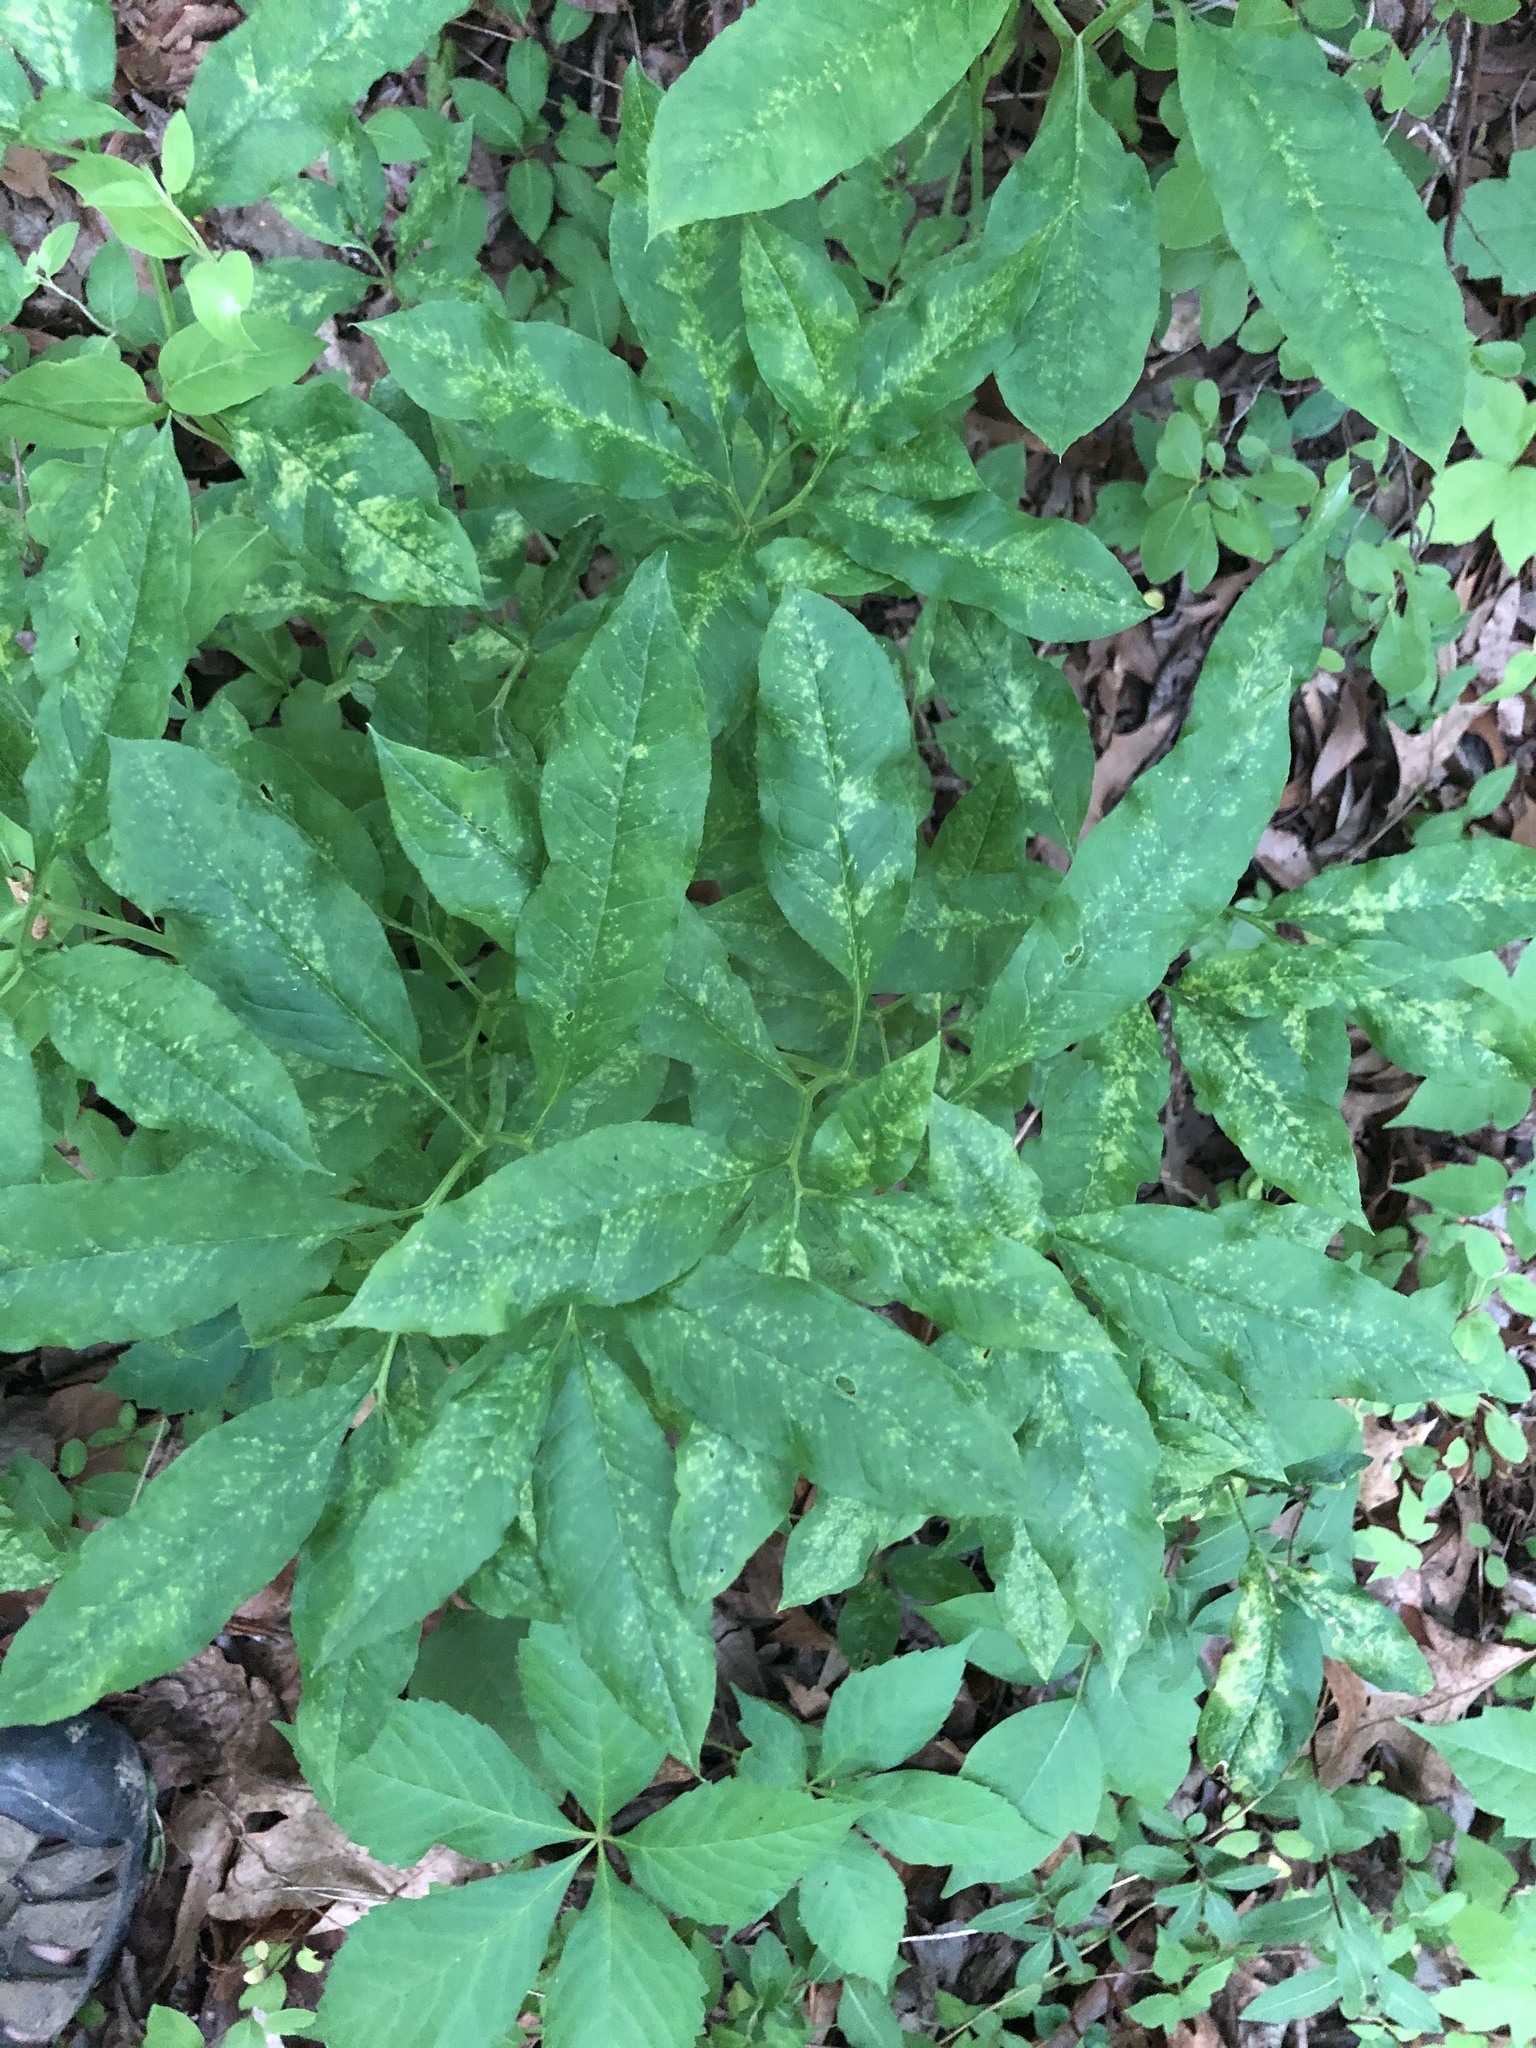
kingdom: Plantae
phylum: Tracheophyta
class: Liliopsida
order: Alismatales
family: Araceae
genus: Arisaema
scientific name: Arisaema dracontium
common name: Dragon-arum
